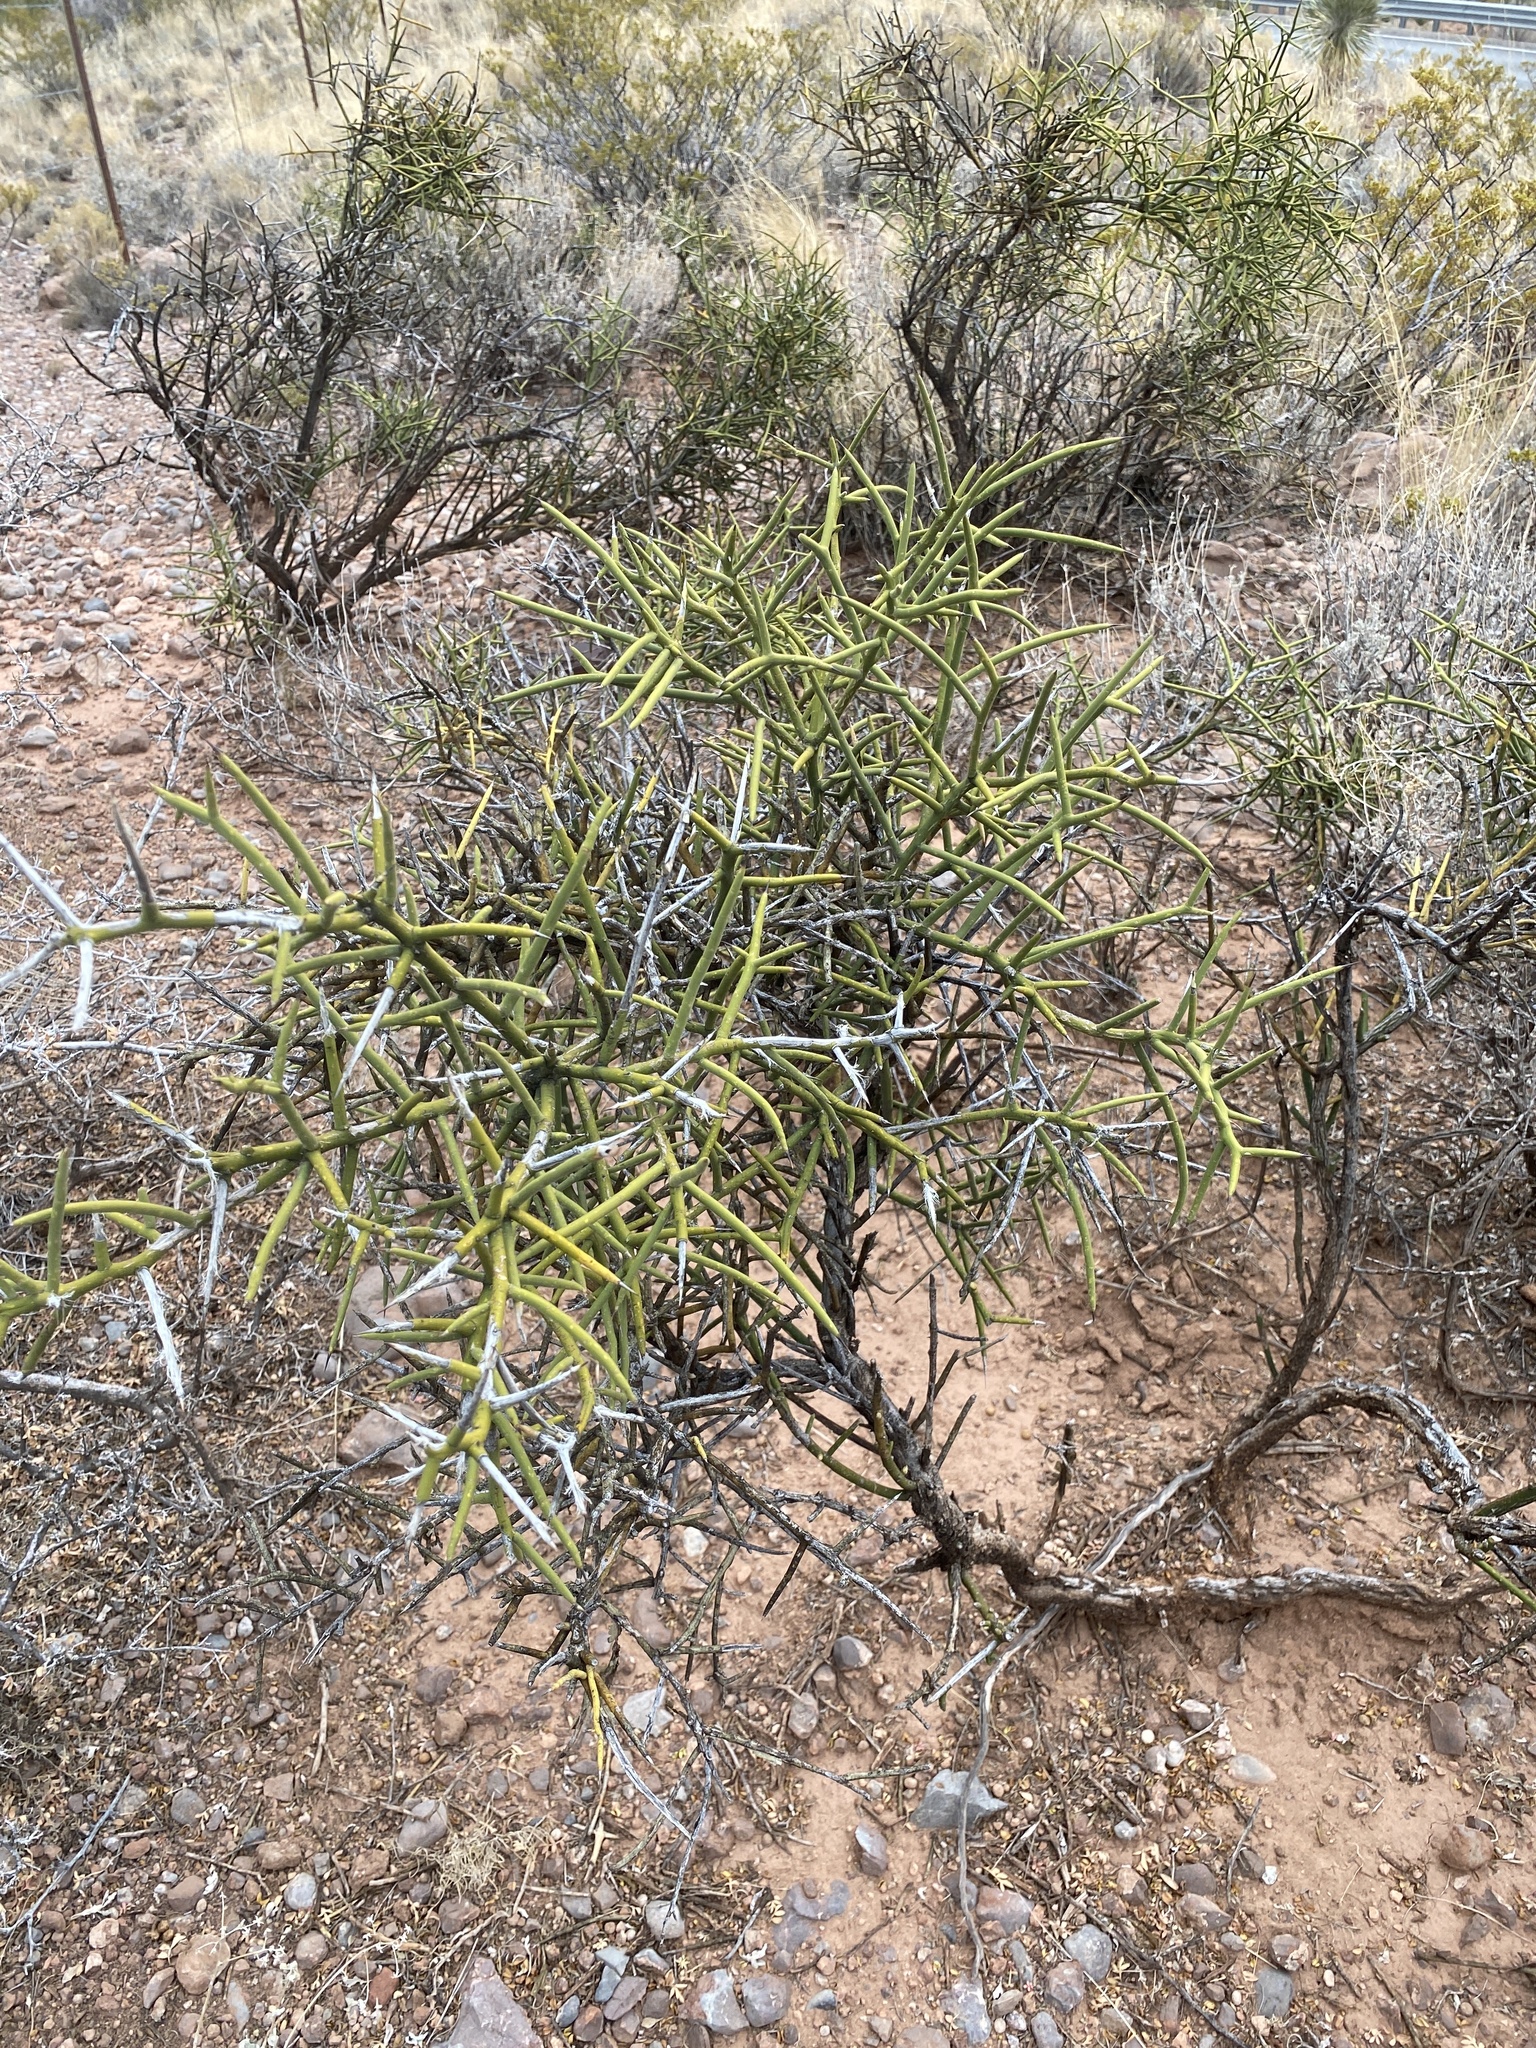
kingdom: Plantae
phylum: Tracheophyta
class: Magnoliopsida
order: Brassicales
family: Koeberliniaceae
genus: Koeberlinia
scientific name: Koeberlinia spinosa
